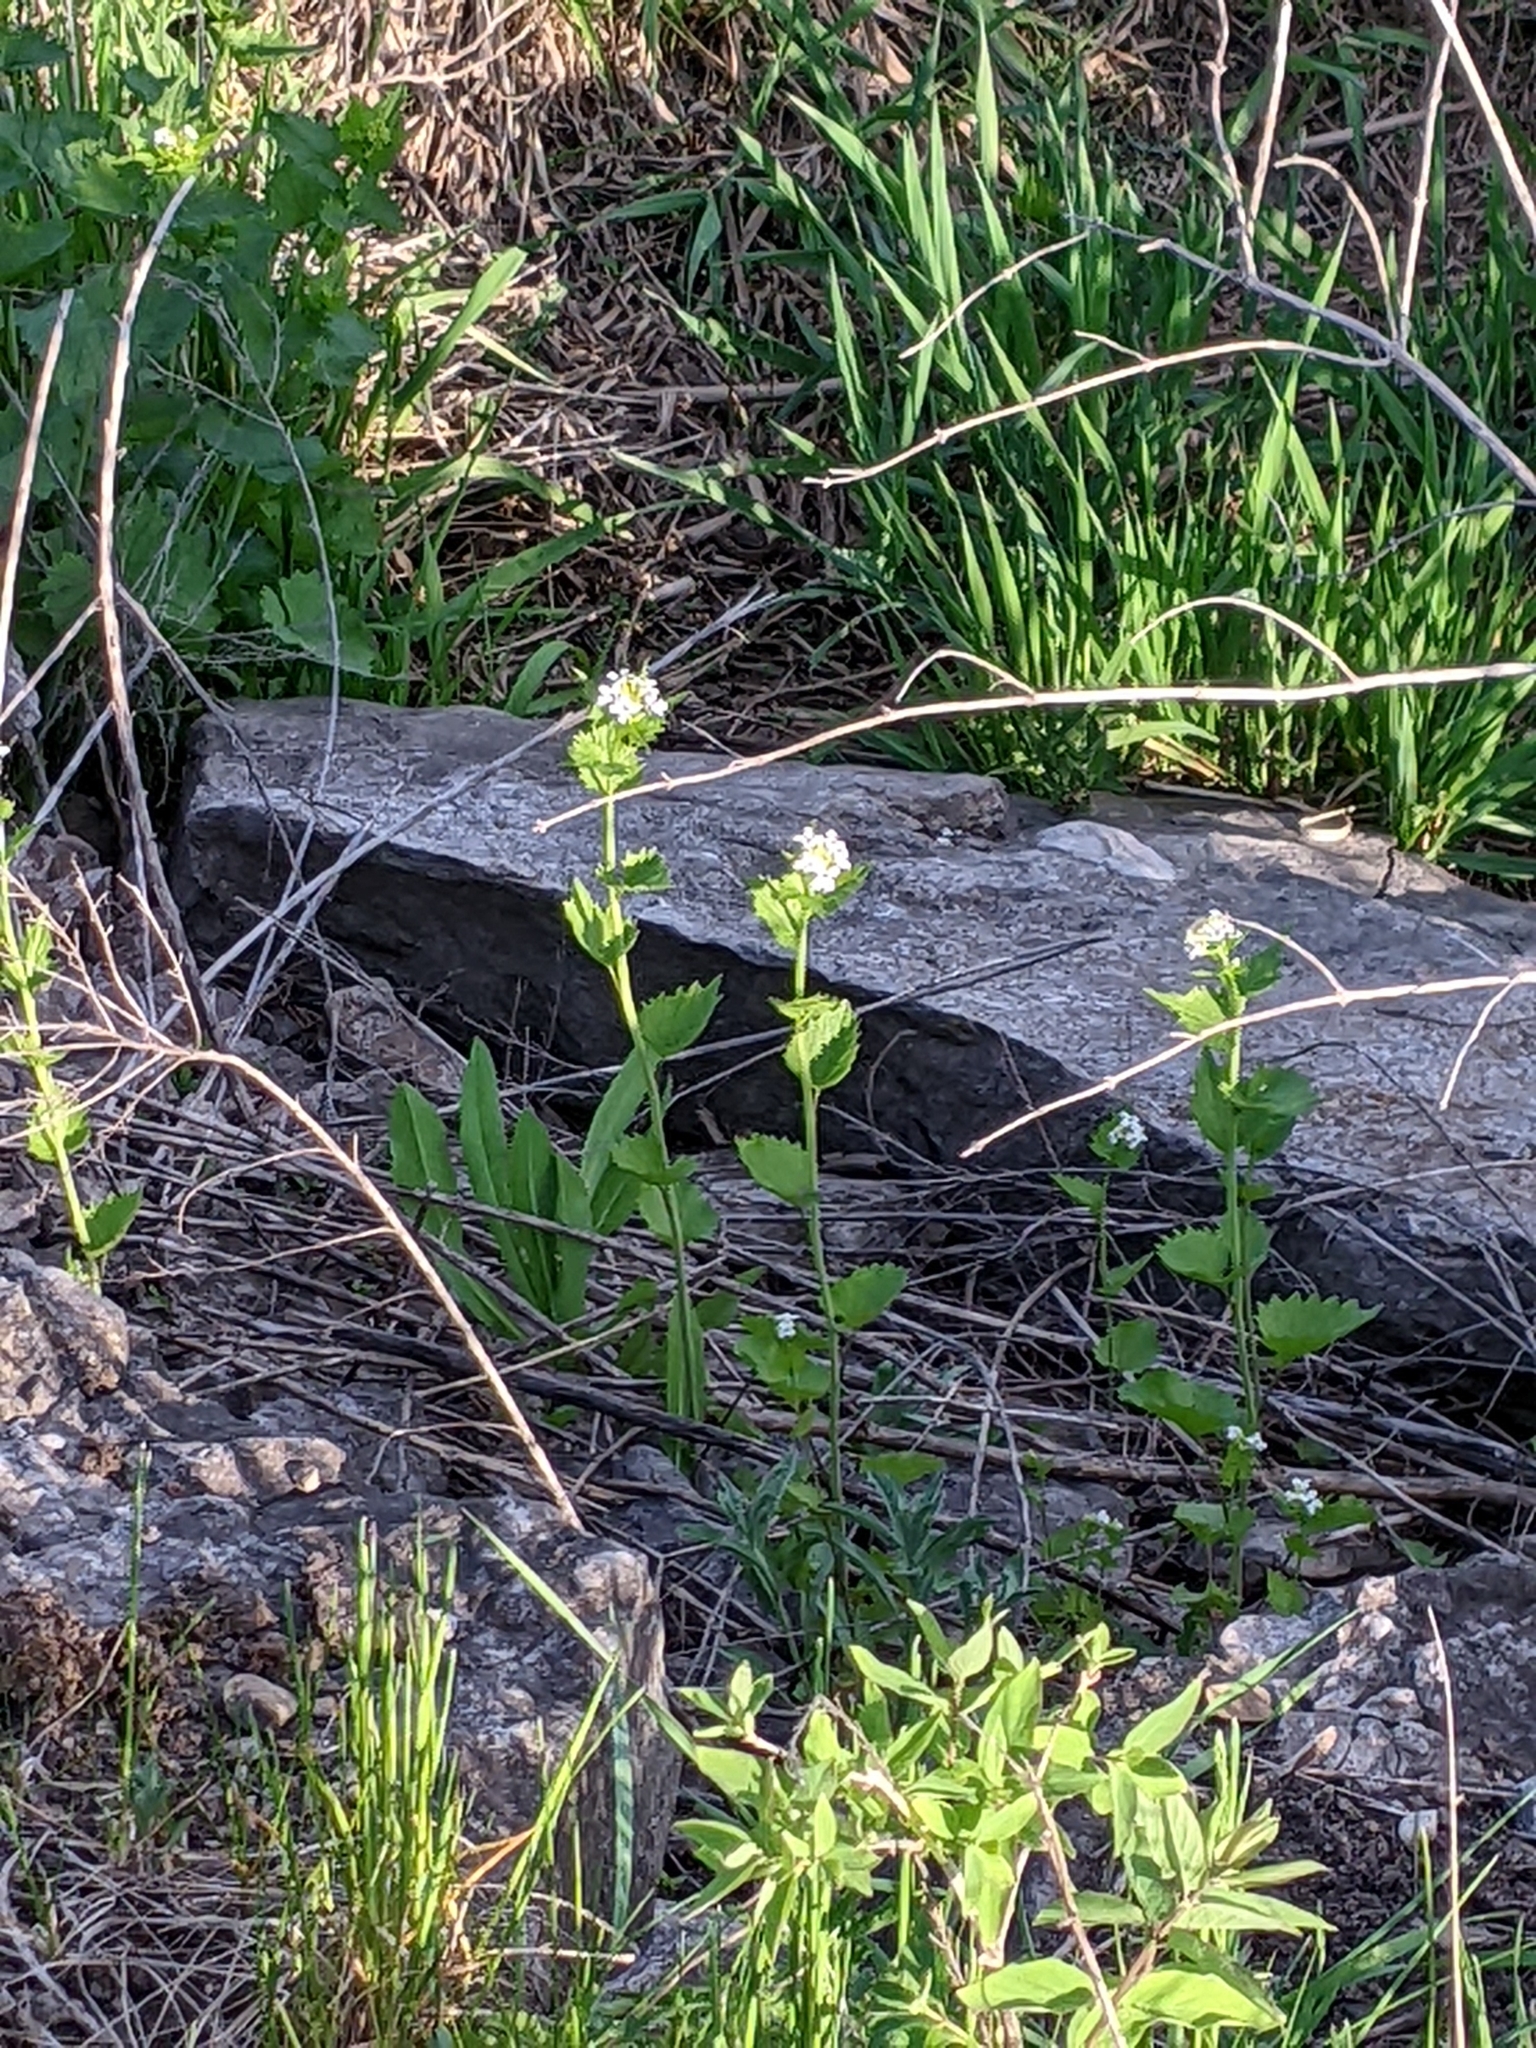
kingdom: Plantae
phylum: Tracheophyta
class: Magnoliopsida
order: Brassicales
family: Brassicaceae
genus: Alliaria
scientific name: Alliaria petiolata
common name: Garlic mustard
